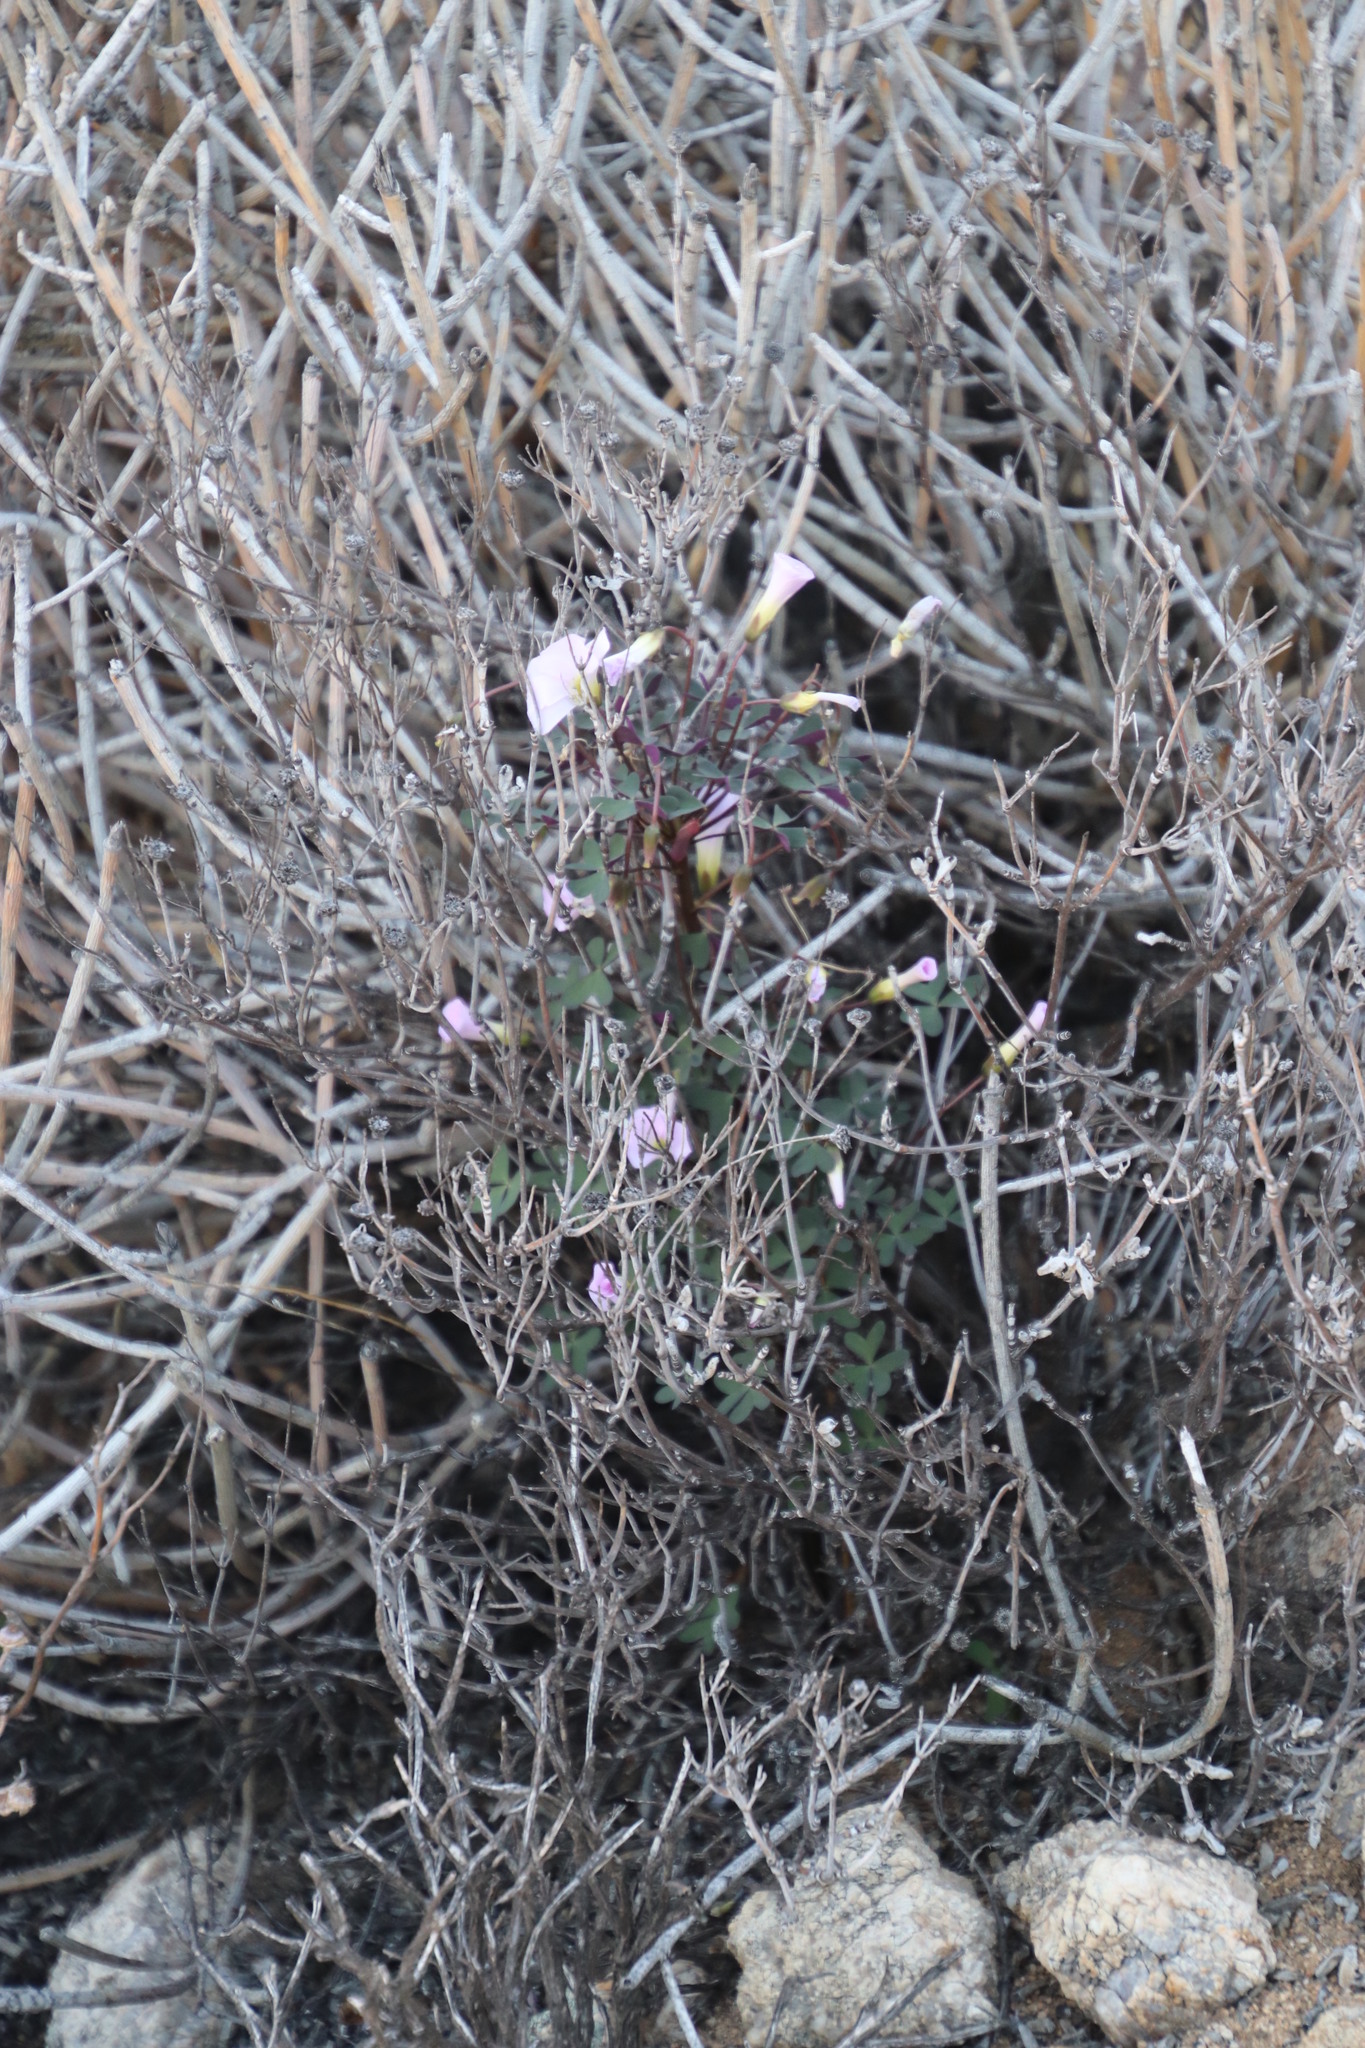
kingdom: Plantae
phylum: Tracheophyta
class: Magnoliopsida
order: Oxalidales
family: Oxalidaceae
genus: Oxalis
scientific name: Oxalis comosa
